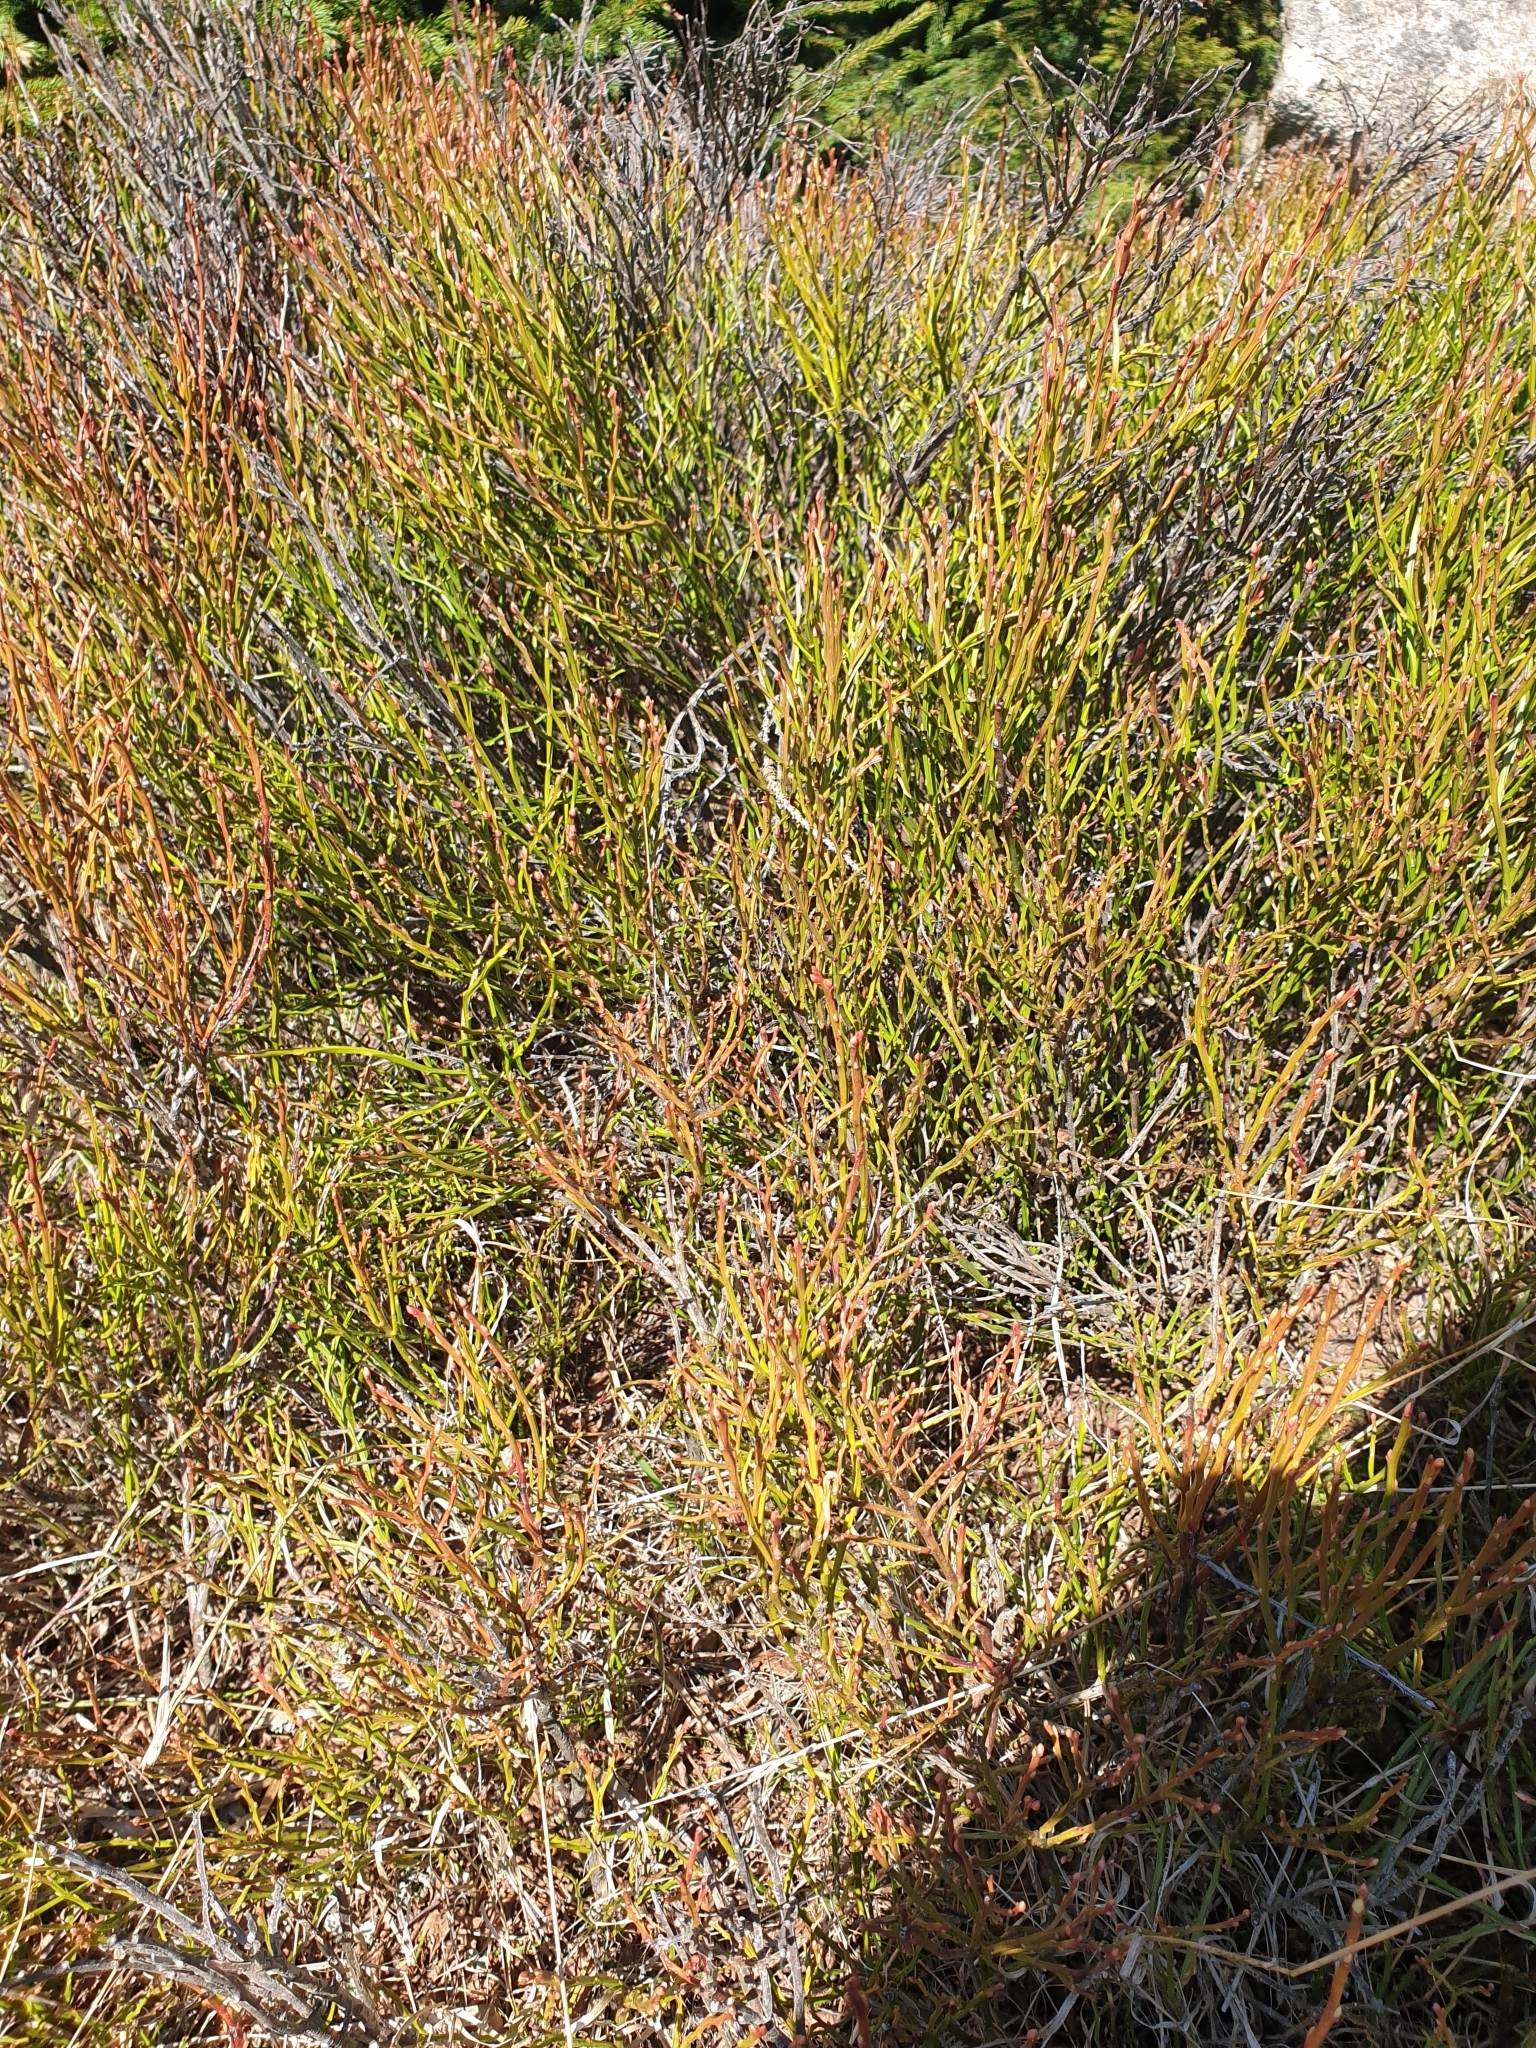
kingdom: Plantae
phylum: Tracheophyta
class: Magnoliopsida
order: Ericales
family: Ericaceae
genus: Vaccinium
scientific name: Vaccinium myrtillus
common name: Bilberry
